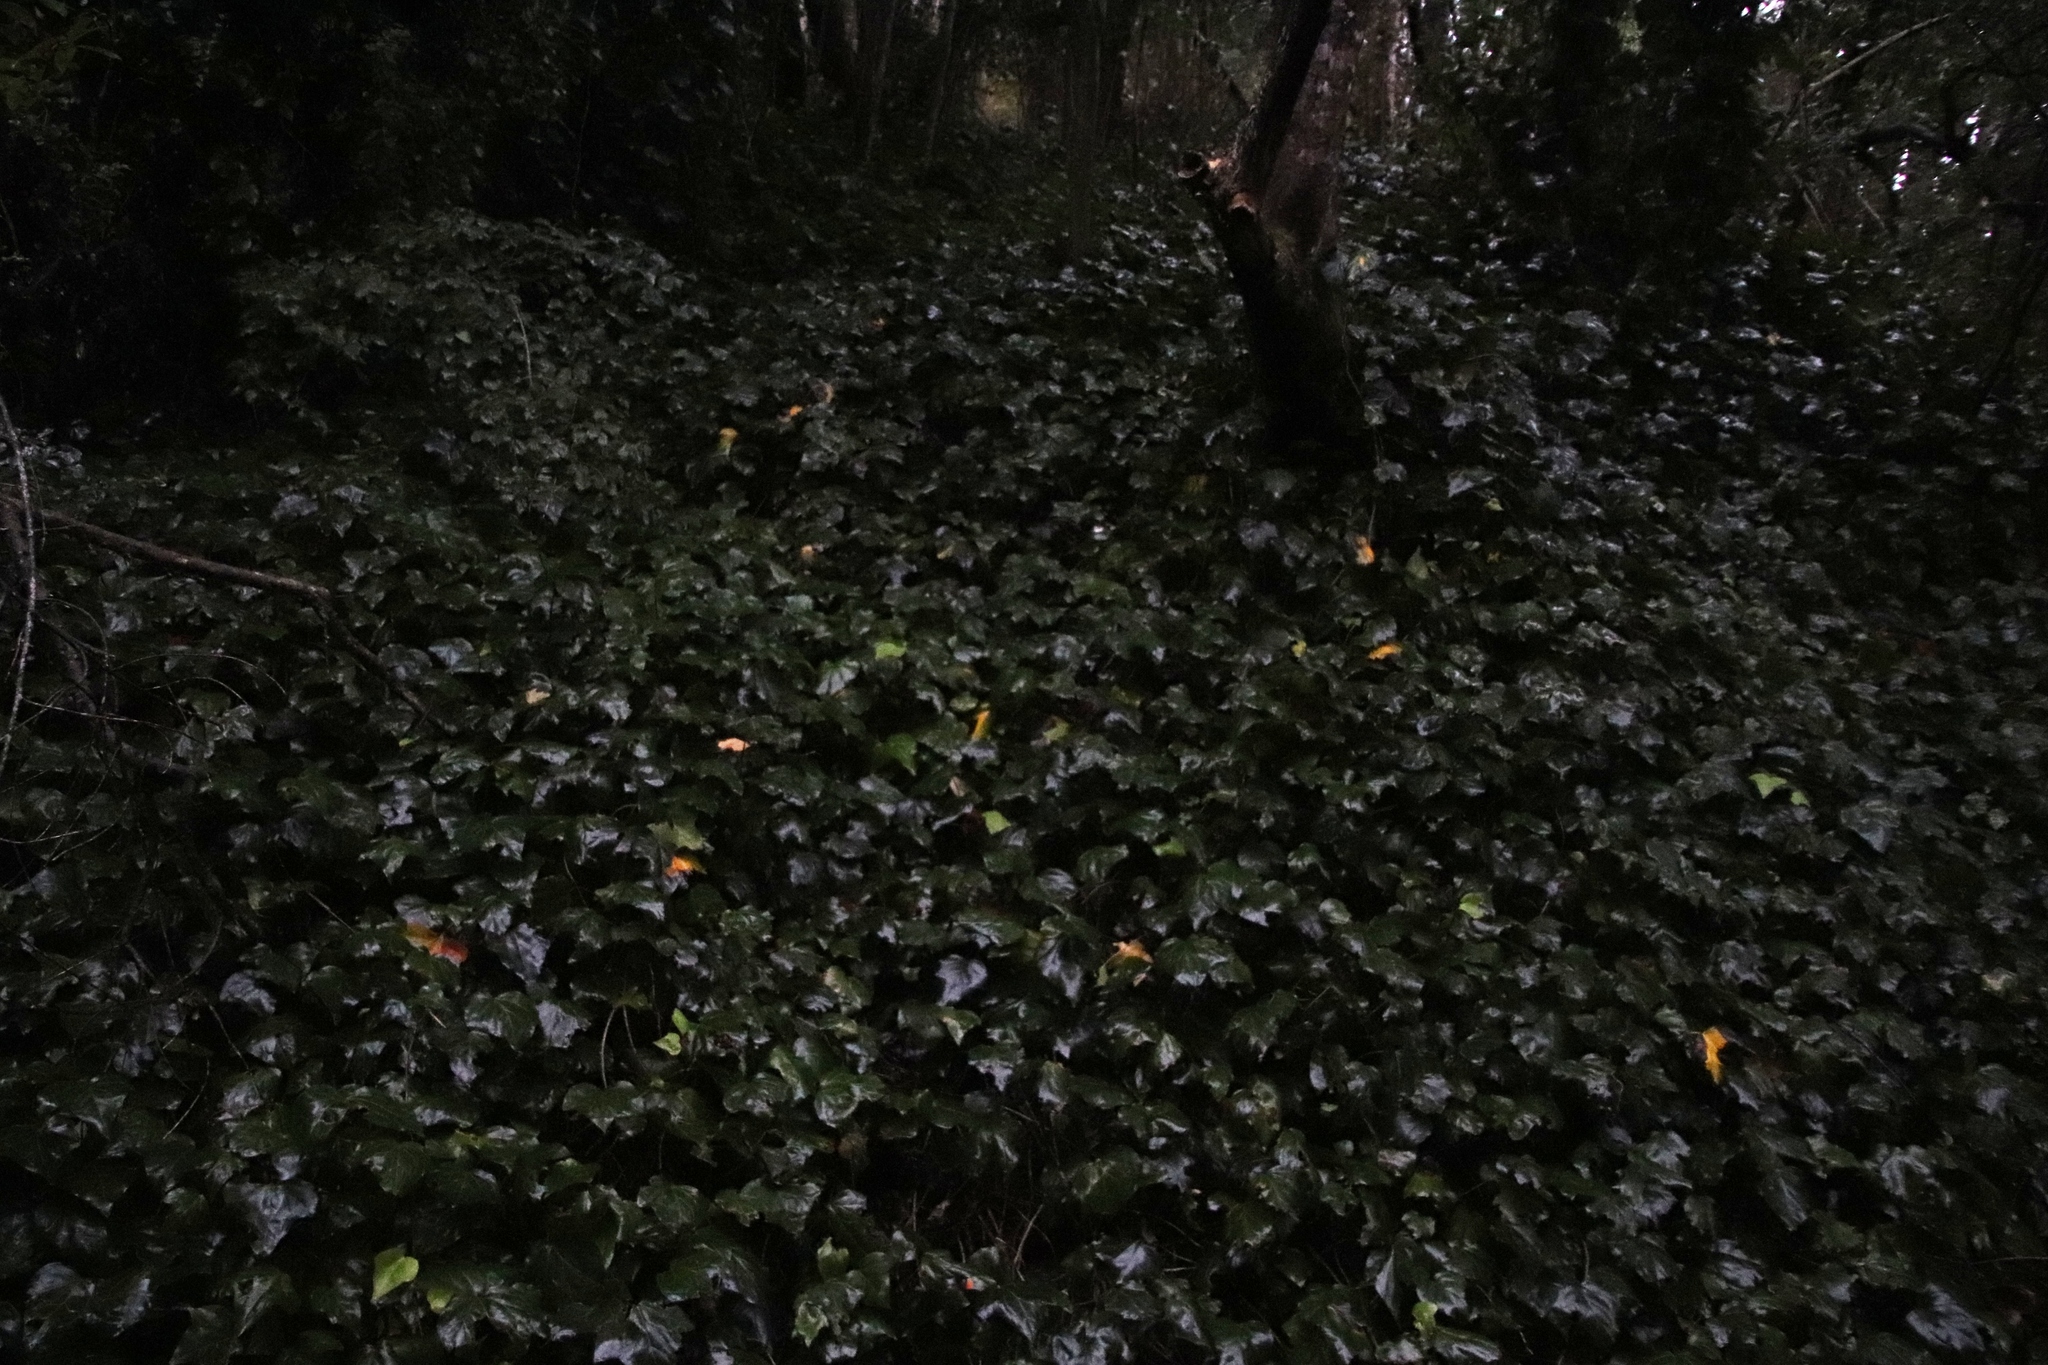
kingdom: Plantae
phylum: Tracheophyta
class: Magnoliopsida
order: Apiales
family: Araliaceae
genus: Hedera
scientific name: Hedera canariensis
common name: Madeira ivy
